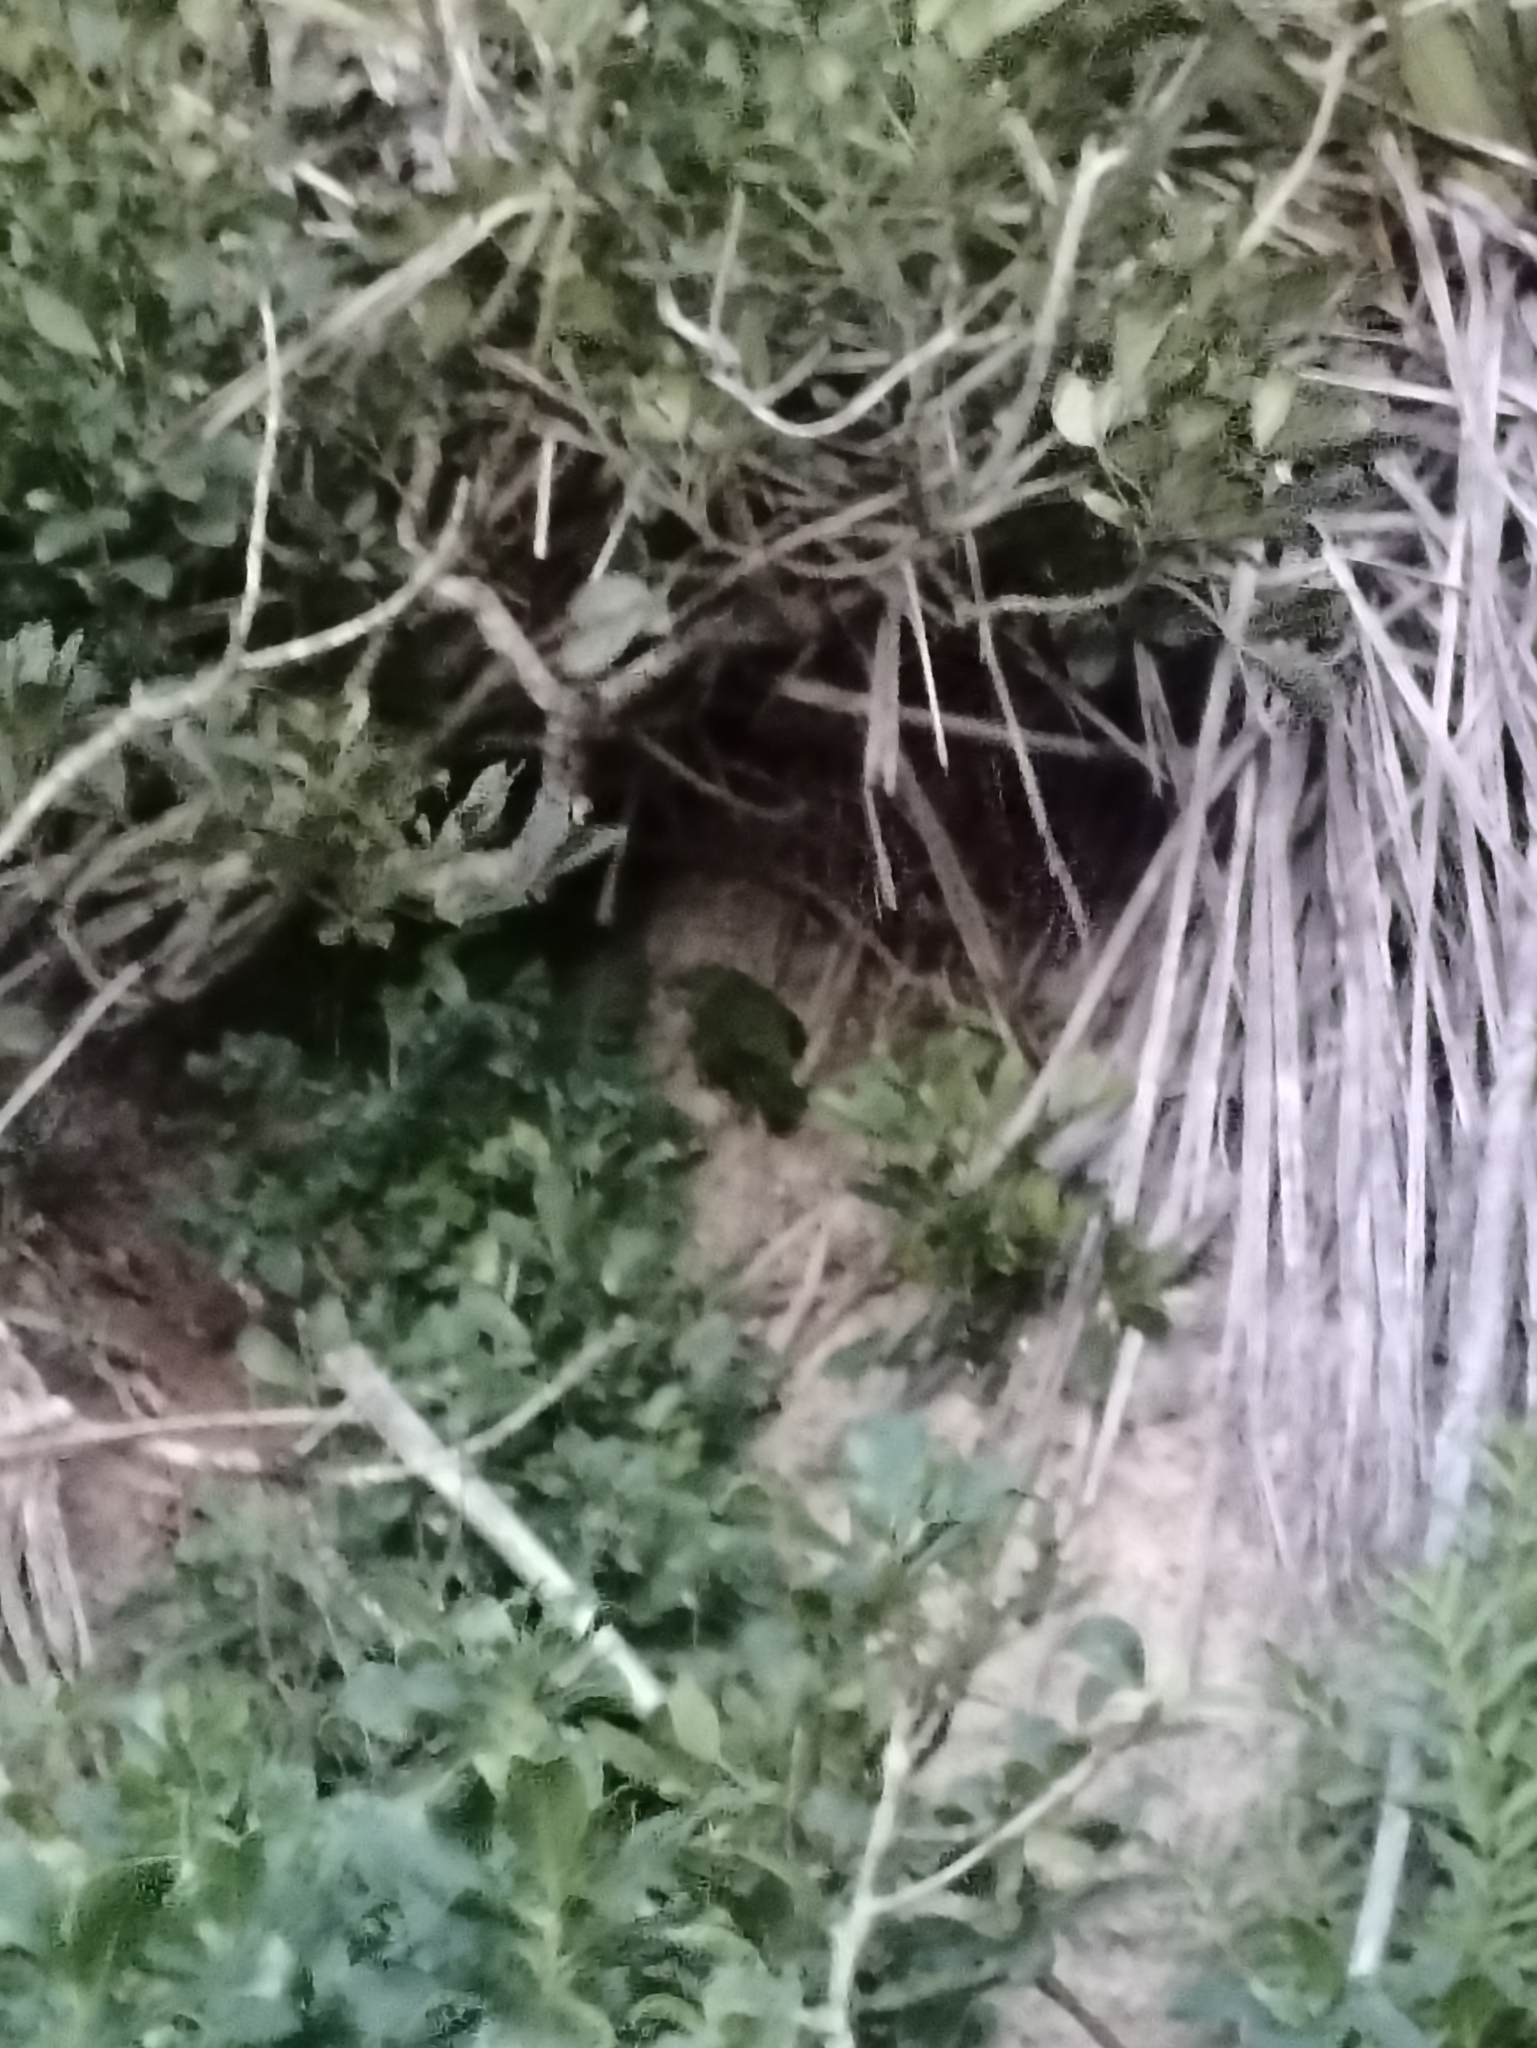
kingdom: Animalia
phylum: Chordata
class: Aves
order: Psittaciformes
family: Psittacidae
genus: Cyanoramphus
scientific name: Cyanoramphus novaezelandiae
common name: Red-fronted parakeet
